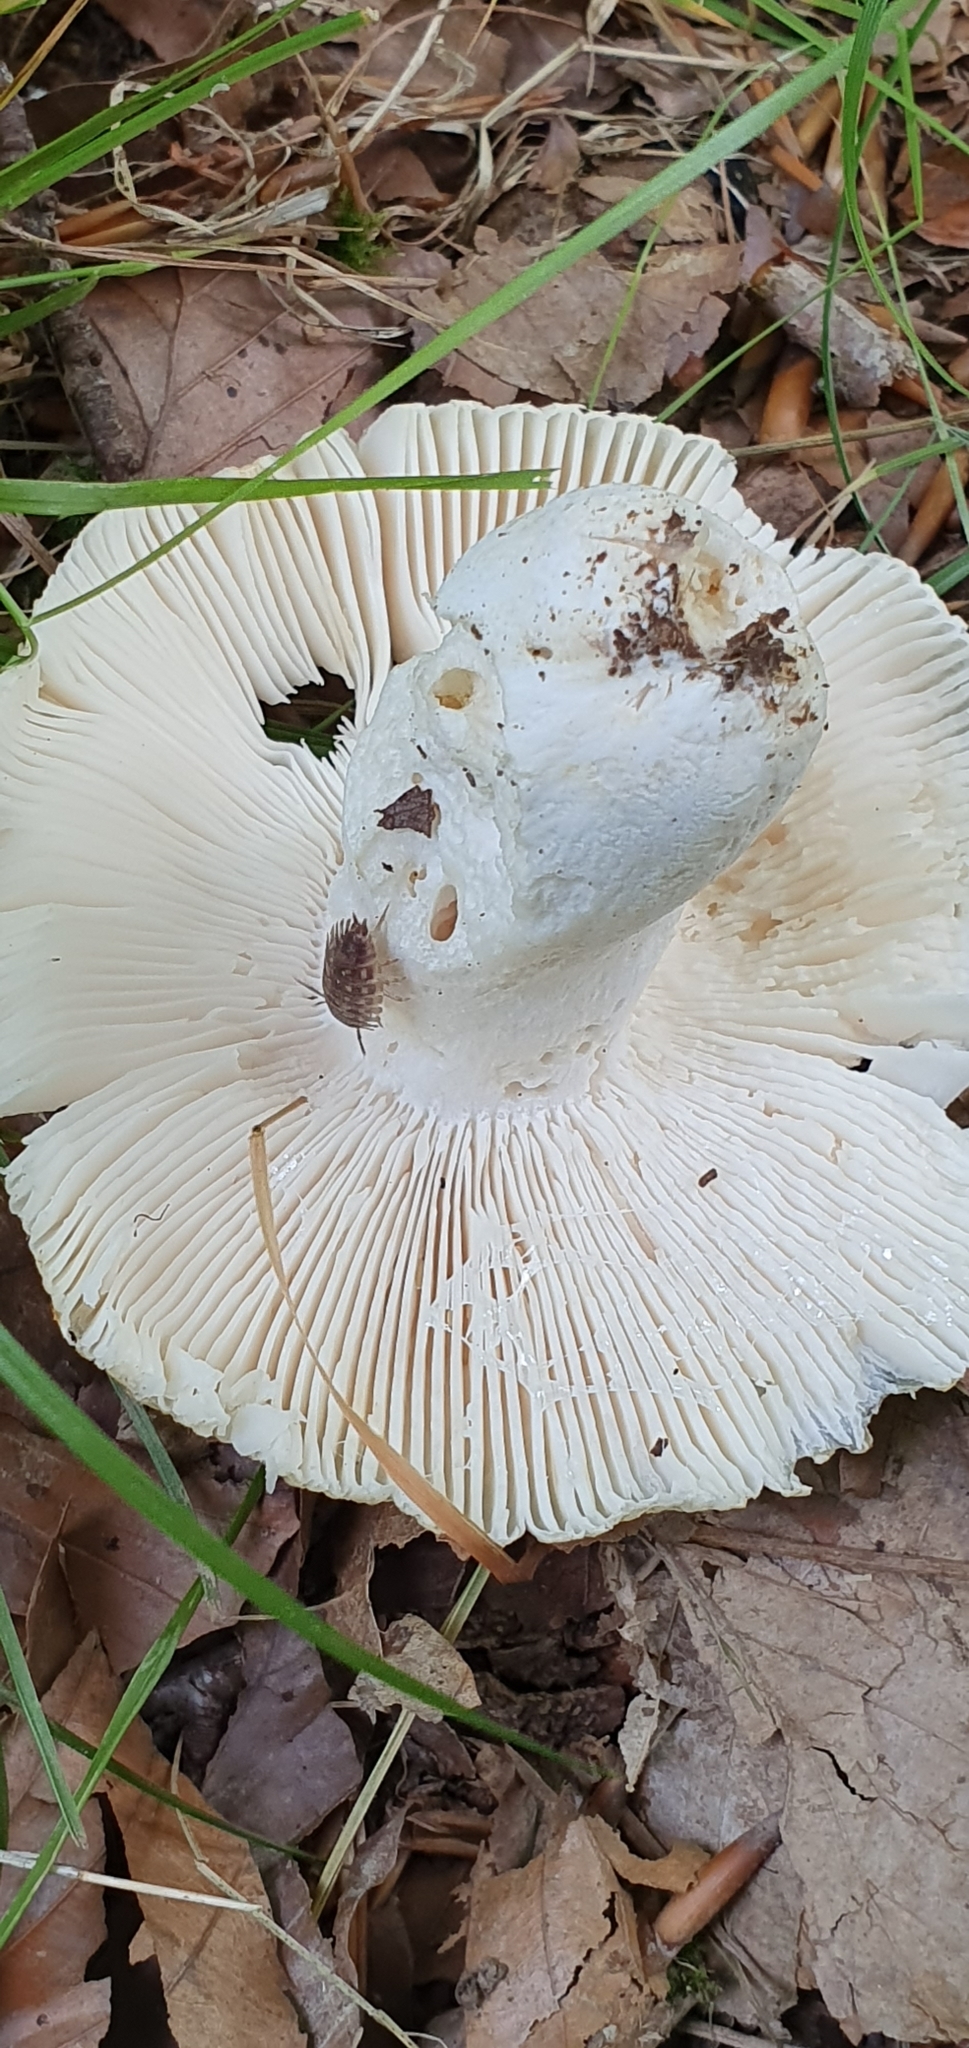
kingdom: Fungi
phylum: Basidiomycota
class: Agaricomycetes
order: Russulales
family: Russulaceae
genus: Russula
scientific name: Russula virescens
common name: Greencracked brittlegill
